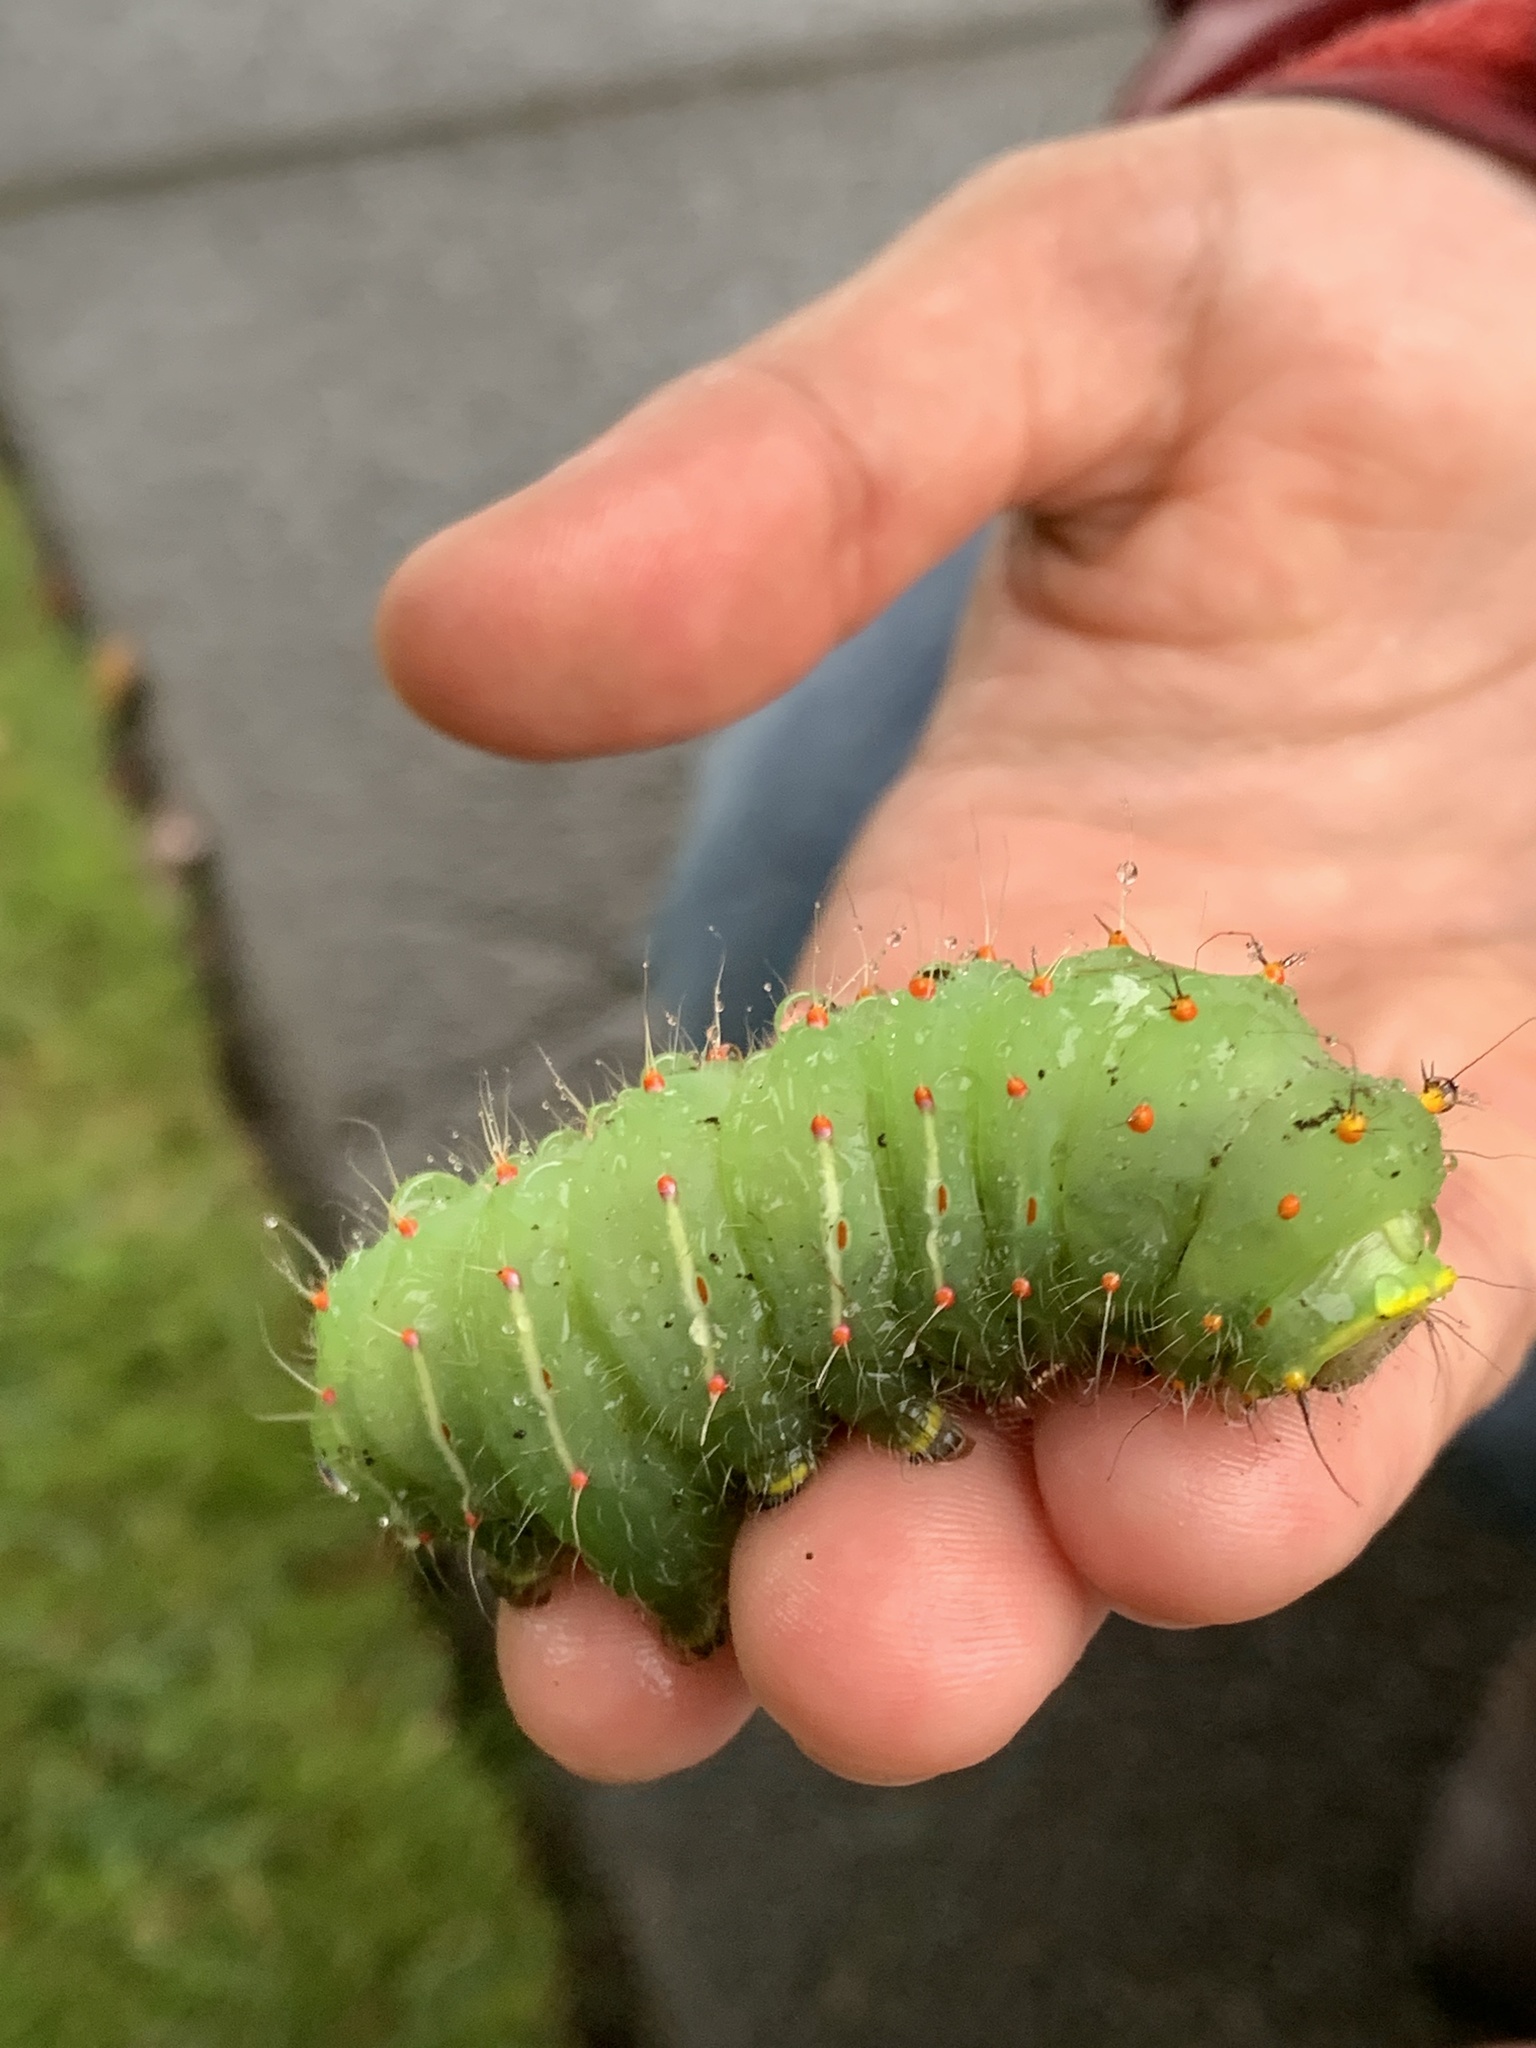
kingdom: Animalia
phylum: Arthropoda
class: Insecta
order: Lepidoptera
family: Saturniidae
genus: Antheraea
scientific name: Antheraea polyphemus
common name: Polyphemus moth
